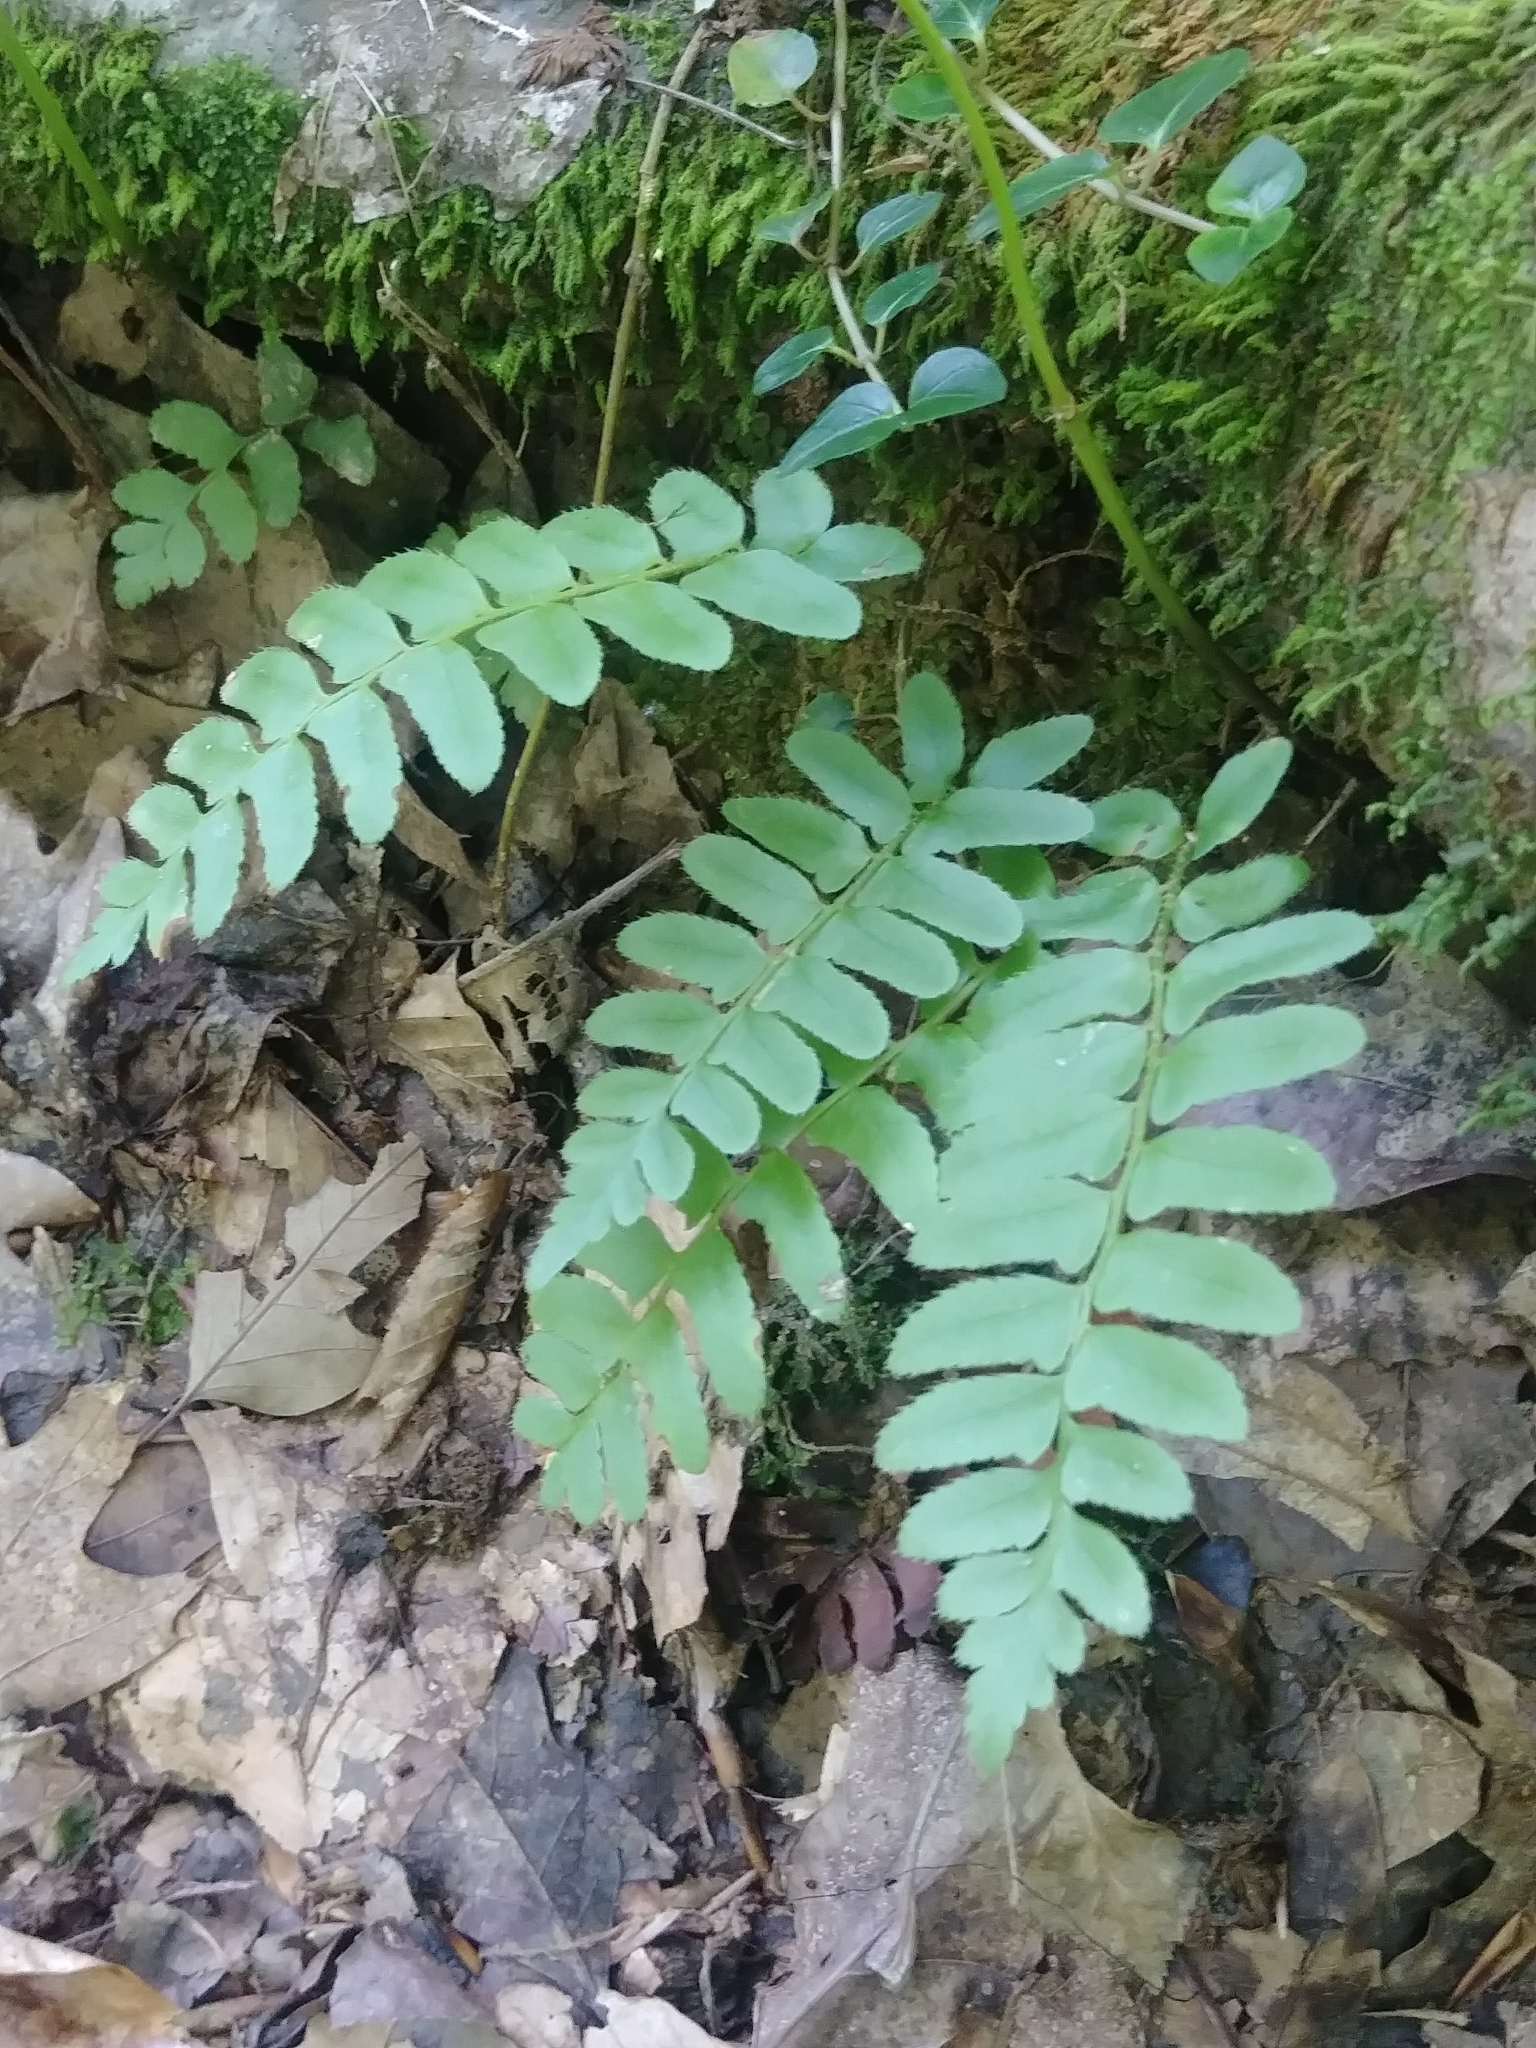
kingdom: Plantae
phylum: Tracheophyta
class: Polypodiopsida
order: Polypodiales
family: Dryopteridaceae
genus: Polystichum
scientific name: Polystichum acrostichoides
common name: Christmas fern
